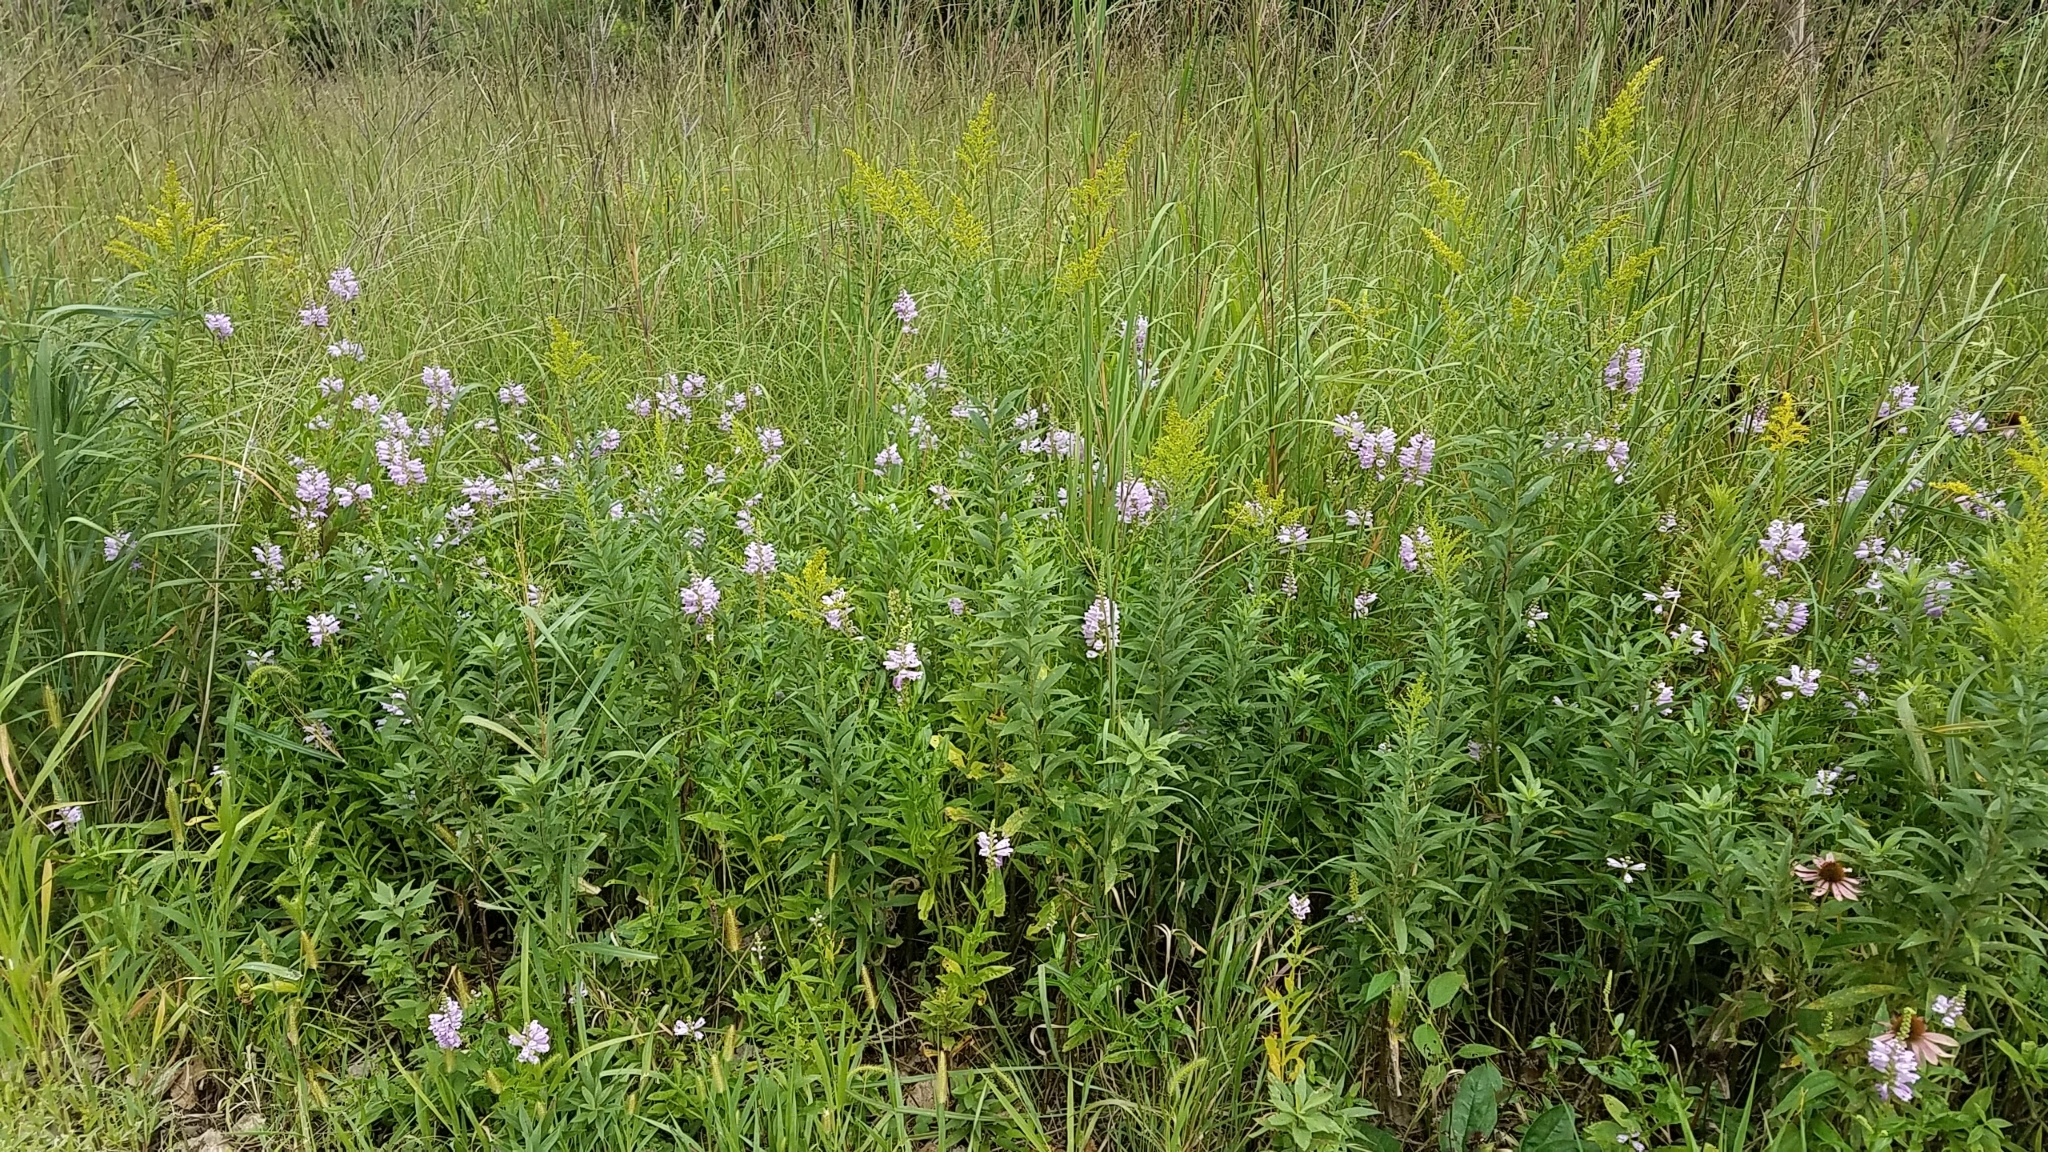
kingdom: Plantae
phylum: Tracheophyta
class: Magnoliopsida
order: Lamiales
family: Lamiaceae
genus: Physostegia
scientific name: Physostegia virginiana
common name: Obedient-plant
